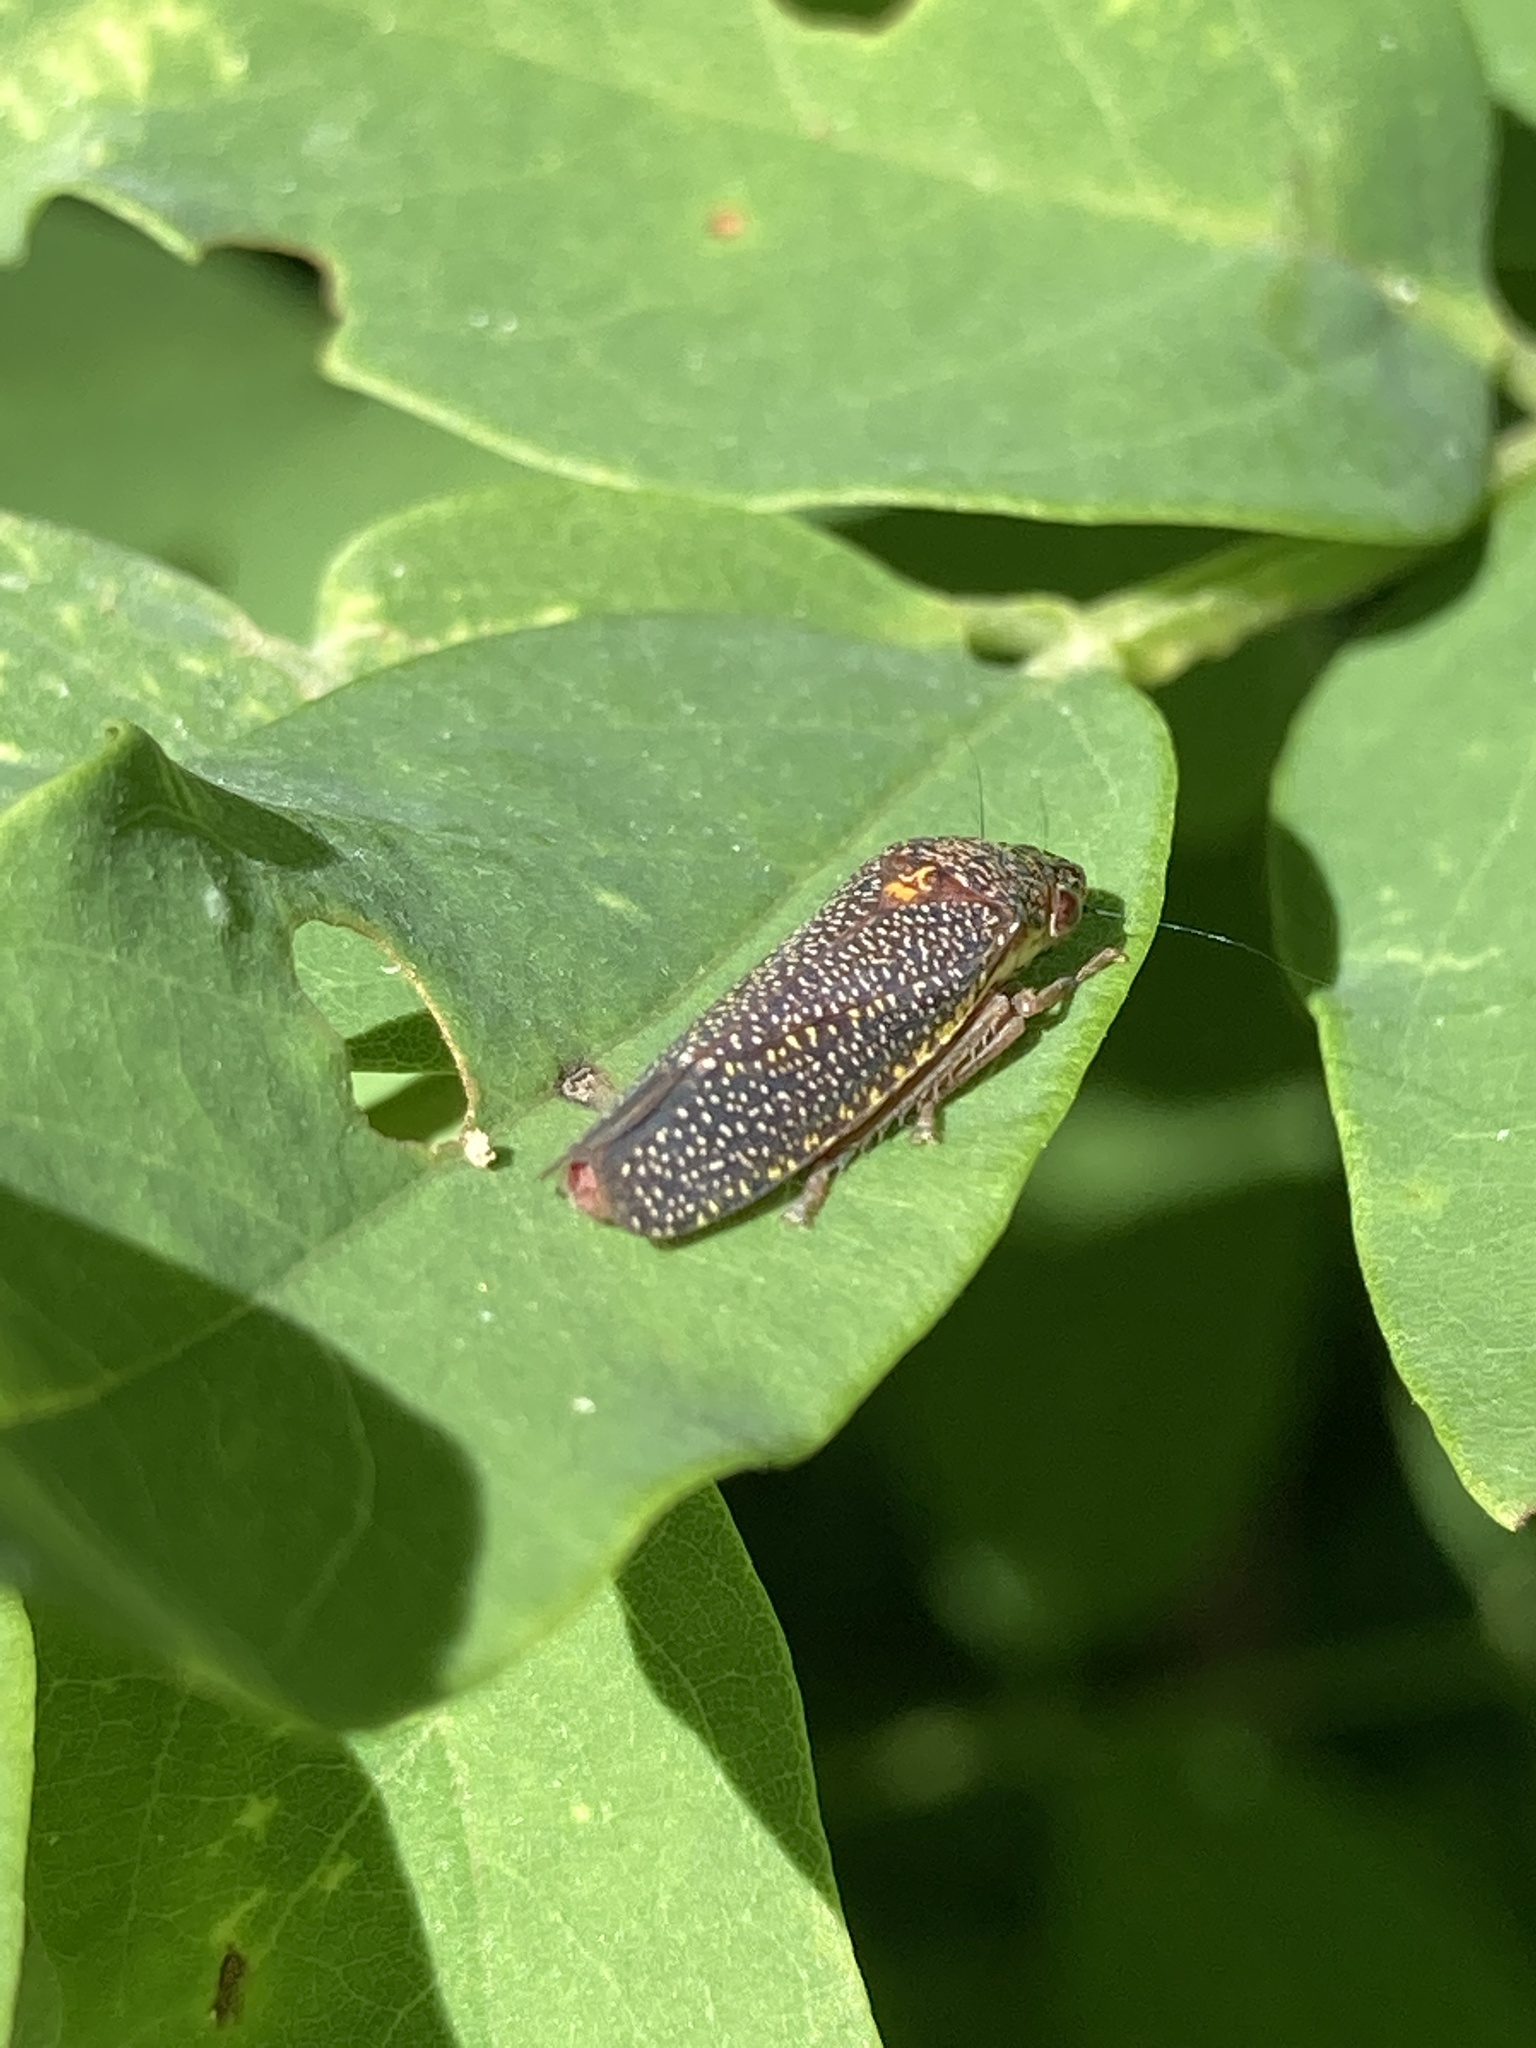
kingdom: Animalia
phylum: Arthropoda
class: Insecta
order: Hemiptera
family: Cicadellidae
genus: Paraulacizes
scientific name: Paraulacizes irrorata
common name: Speckled sharpshooter
